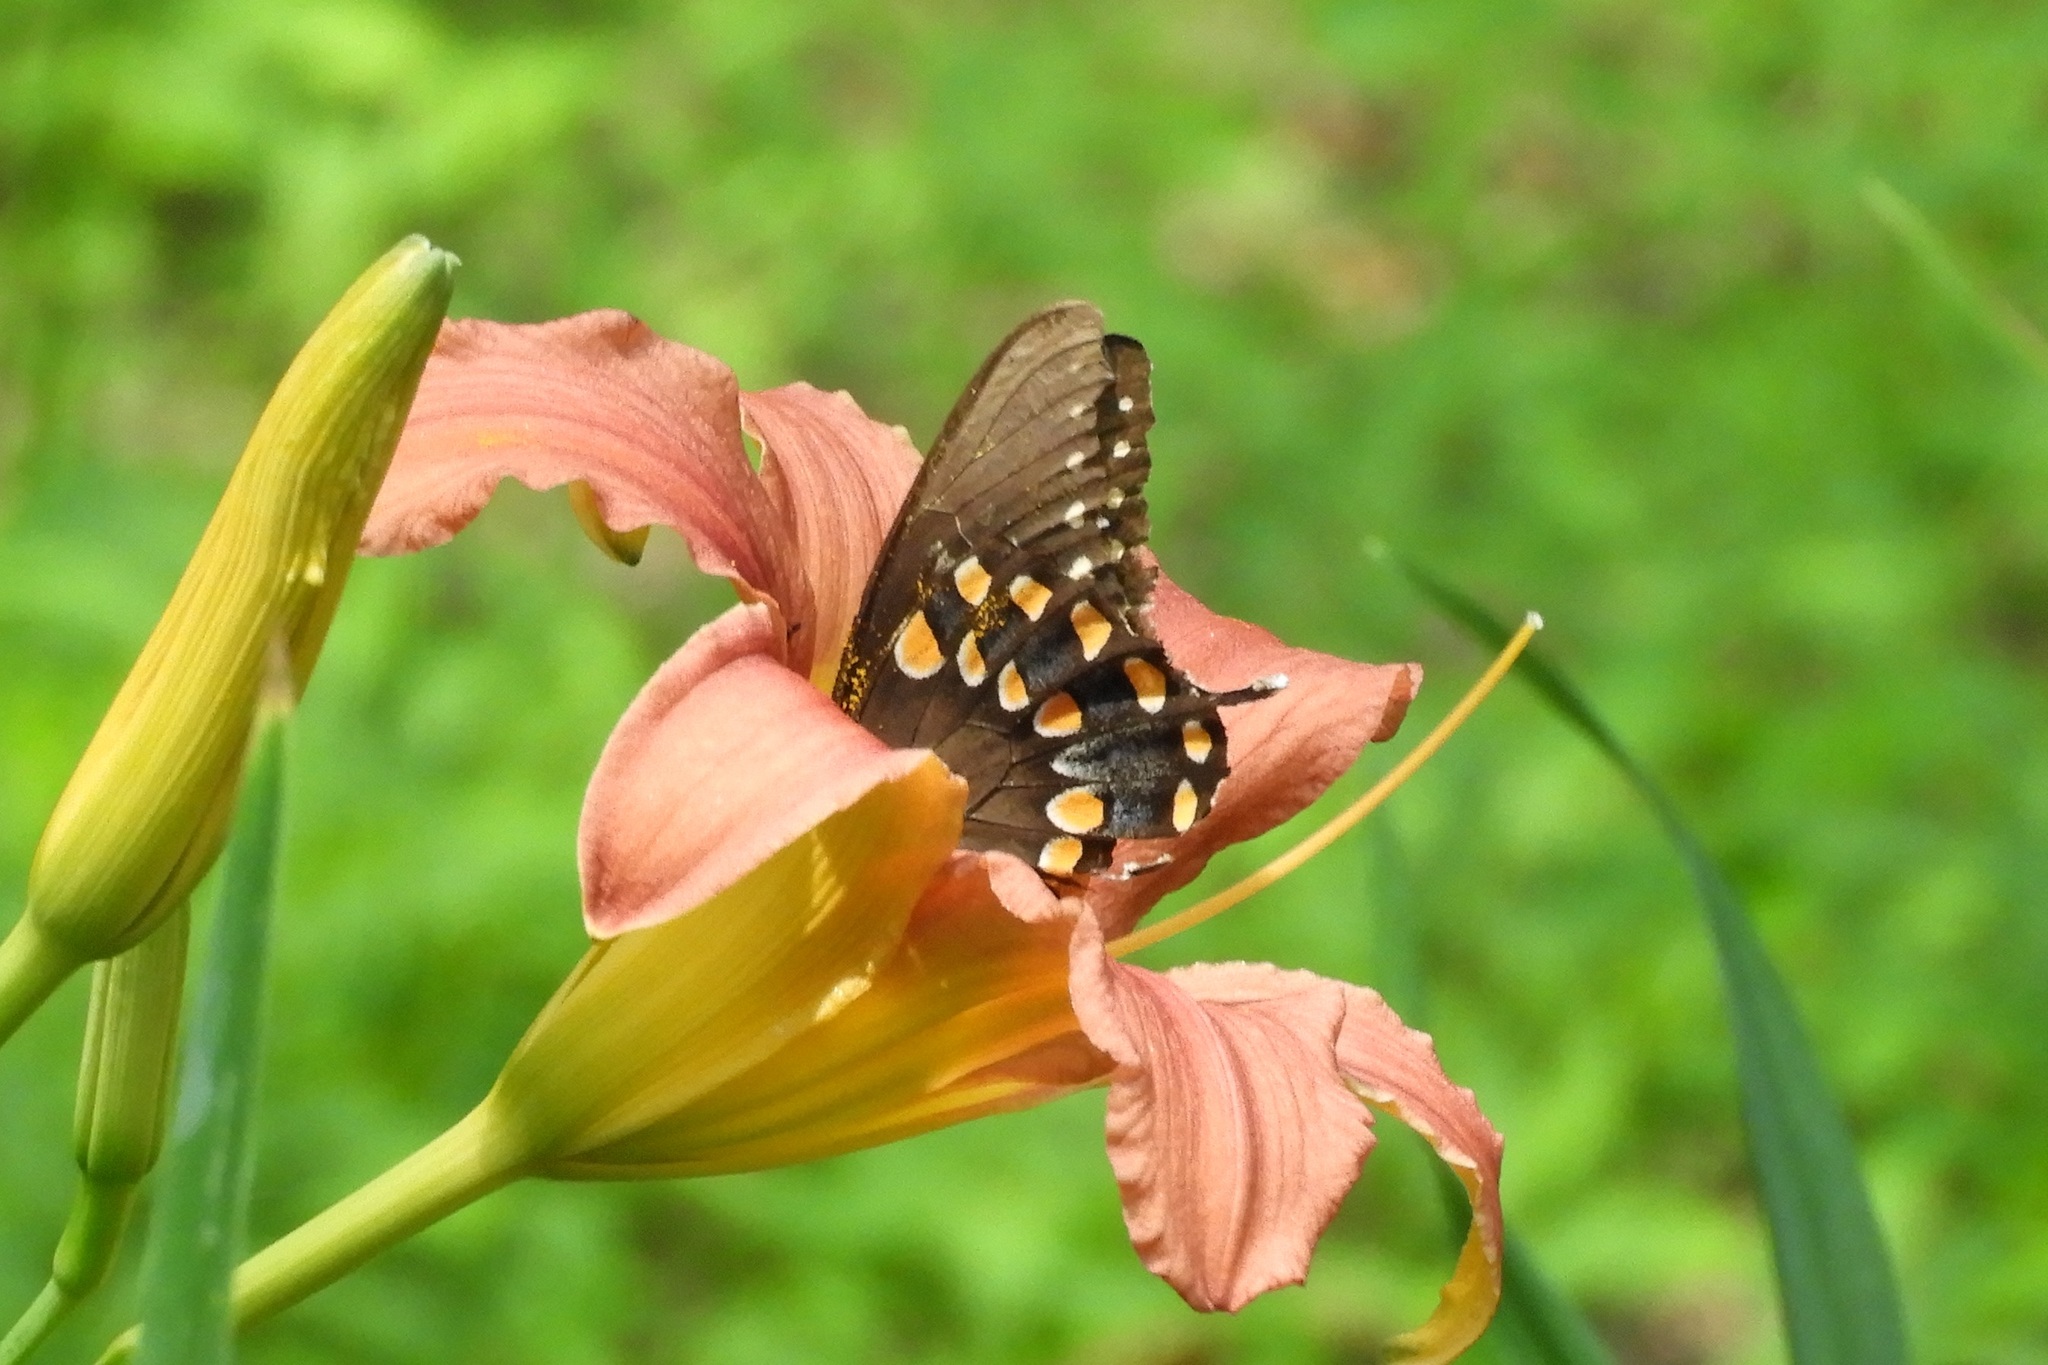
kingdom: Animalia
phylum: Arthropoda
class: Insecta
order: Lepidoptera
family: Papilionidae
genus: Papilio
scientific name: Papilio troilus
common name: Spicebush swallowtail
